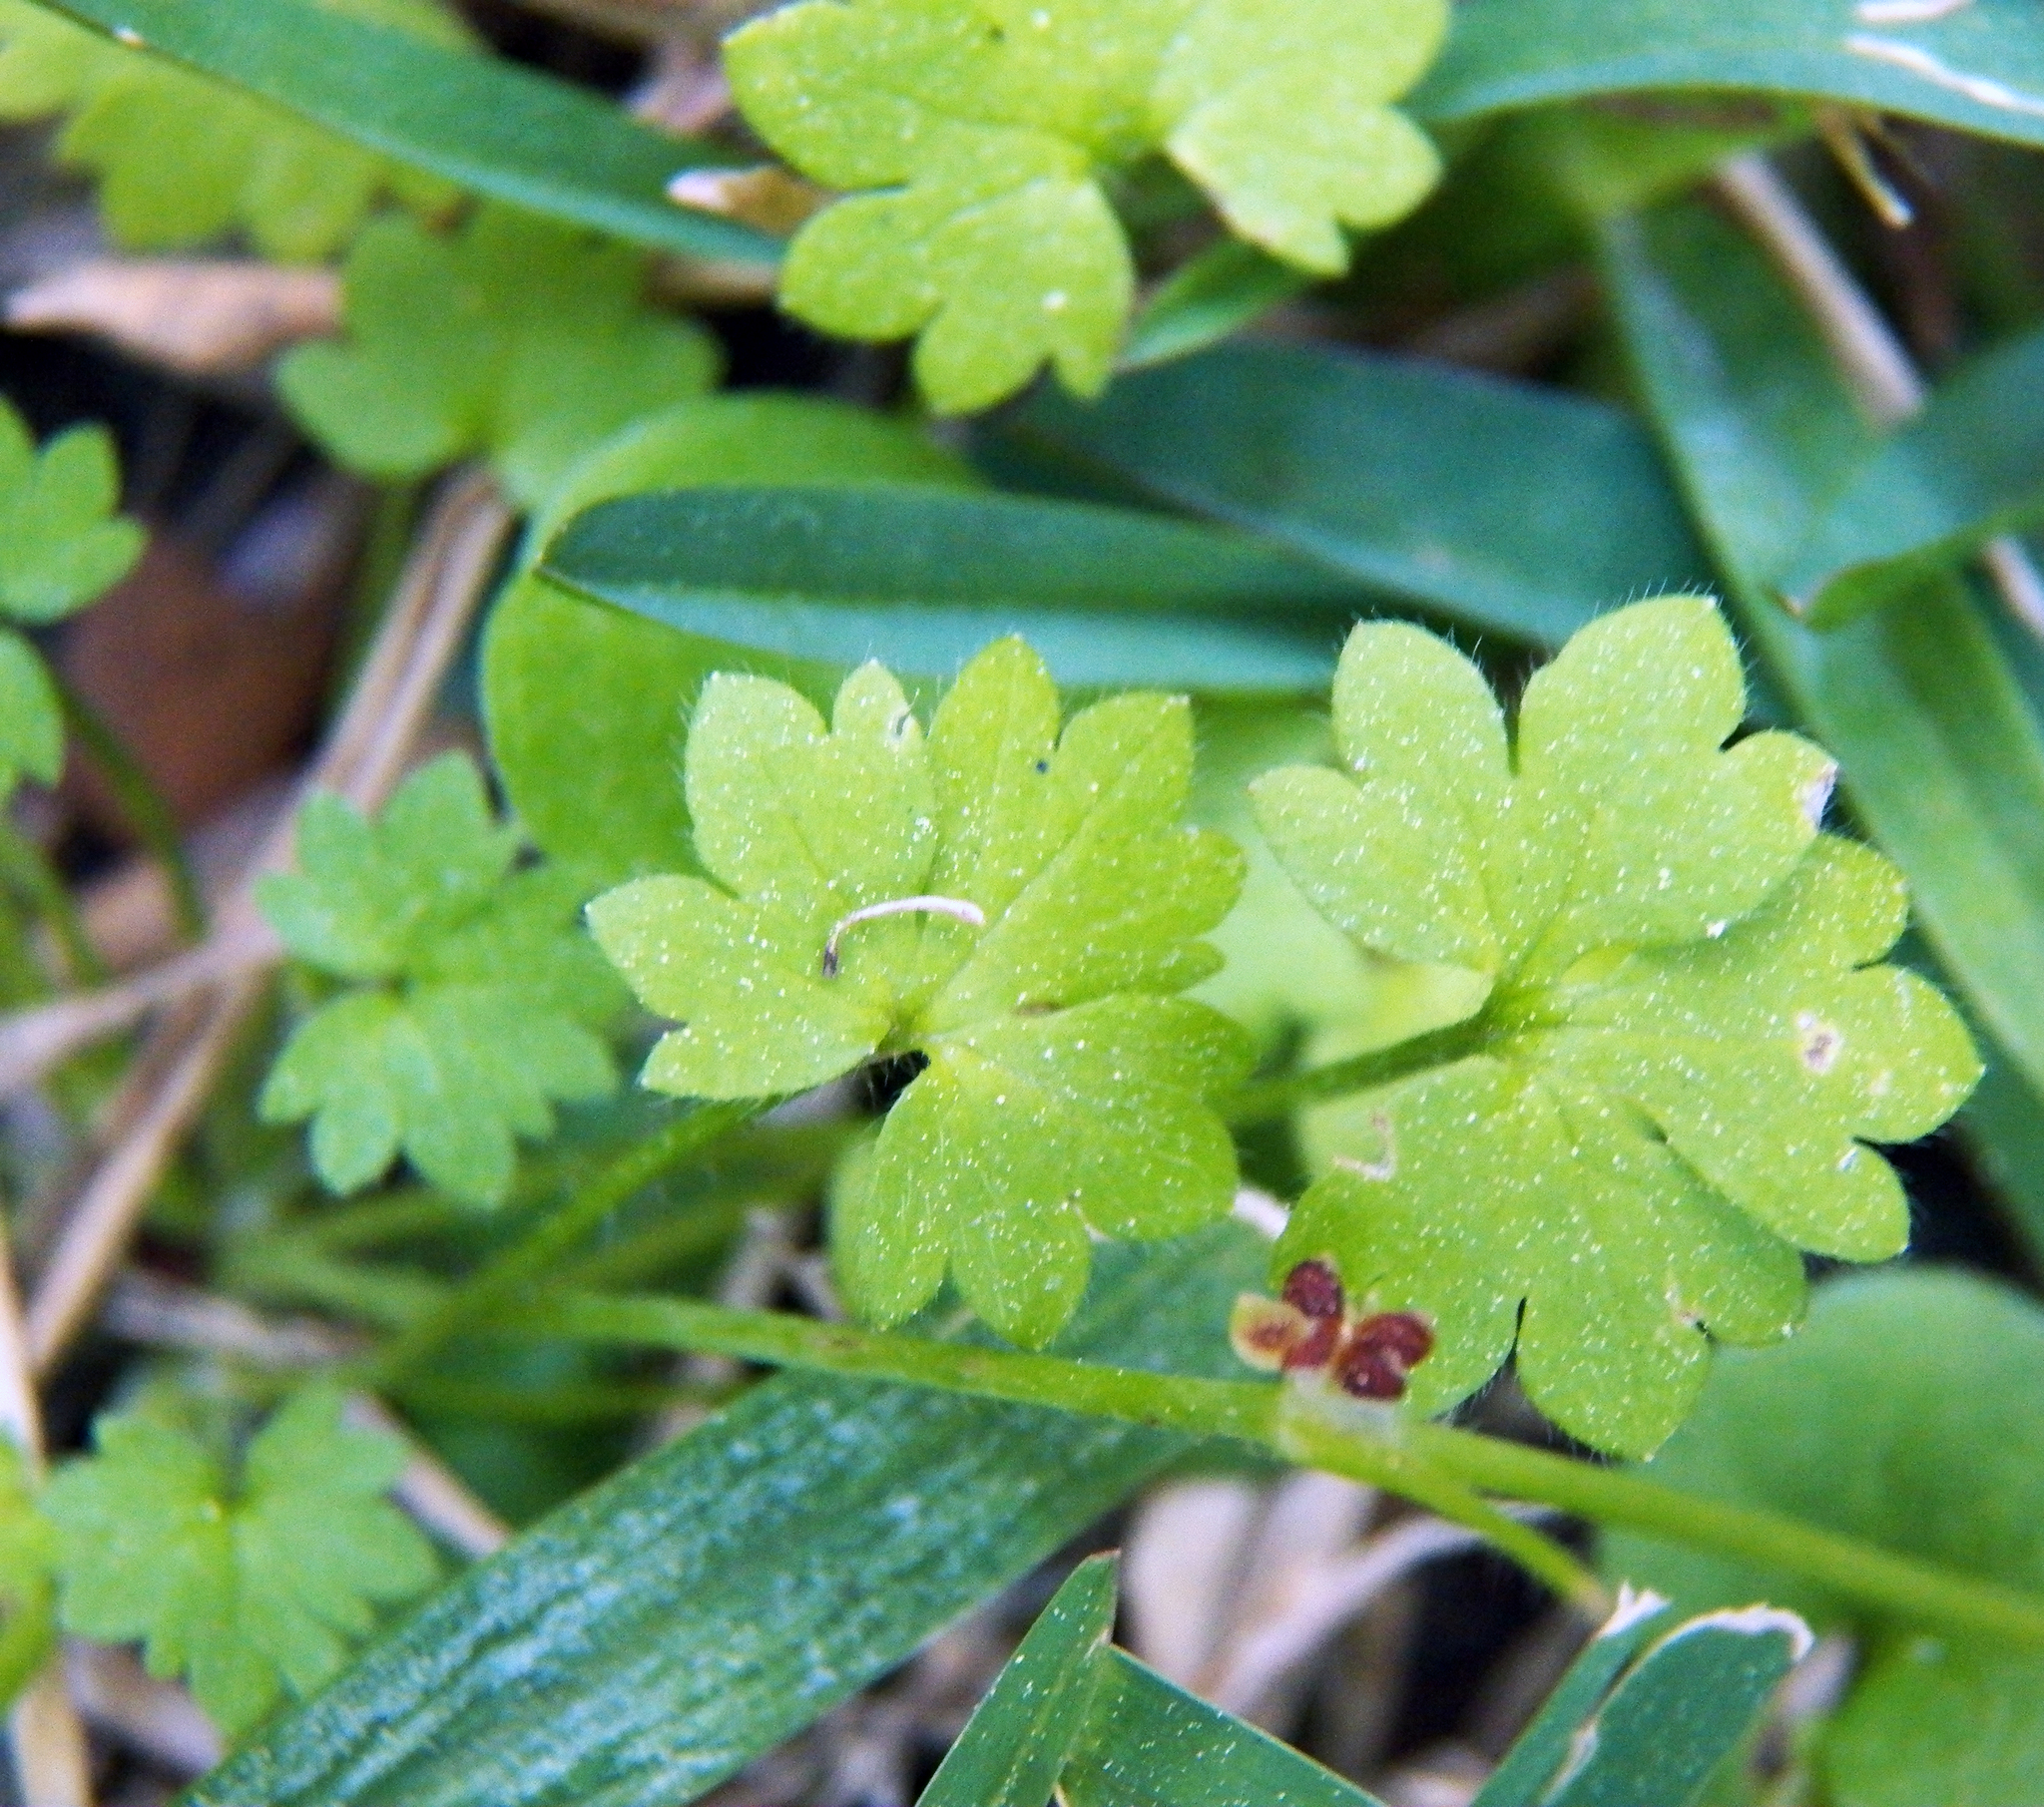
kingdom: Plantae
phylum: Tracheophyta
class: Magnoliopsida
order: Apiales
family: Apiaceae
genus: Bowlesia
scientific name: Bowlesia incana
